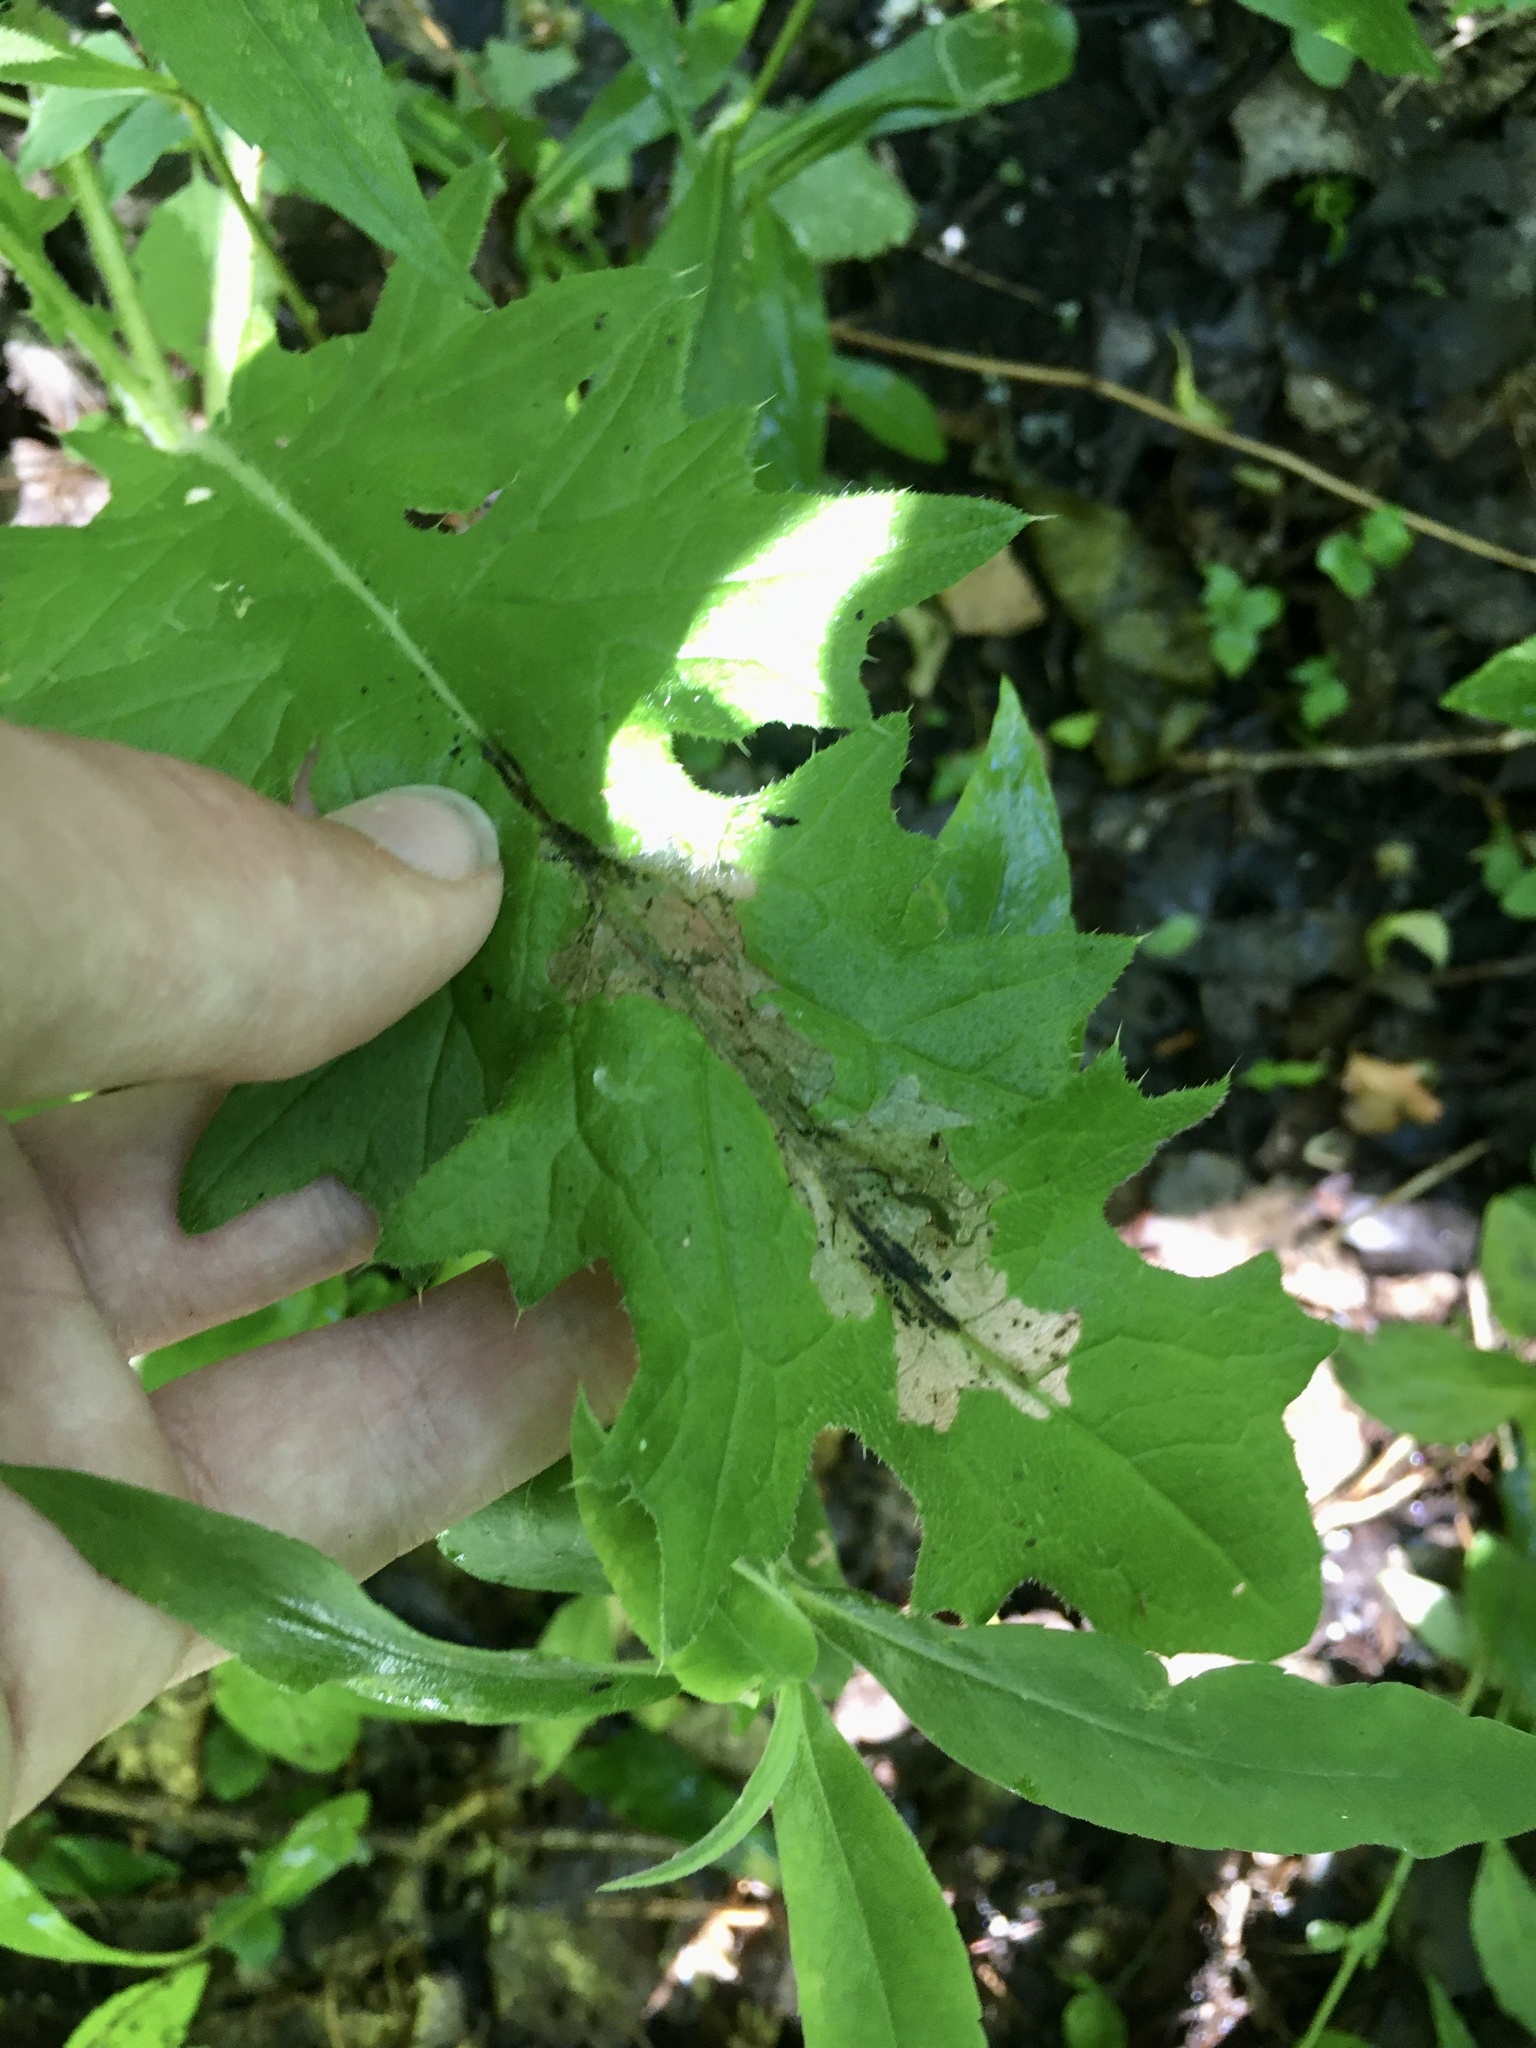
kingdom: Animalia
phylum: Arthropoda
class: Insecta
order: Lepidoptera
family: Gelechiidae
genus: Scrobipalpa
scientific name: Scrobipalpa acuminatella
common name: Pointed groundling
